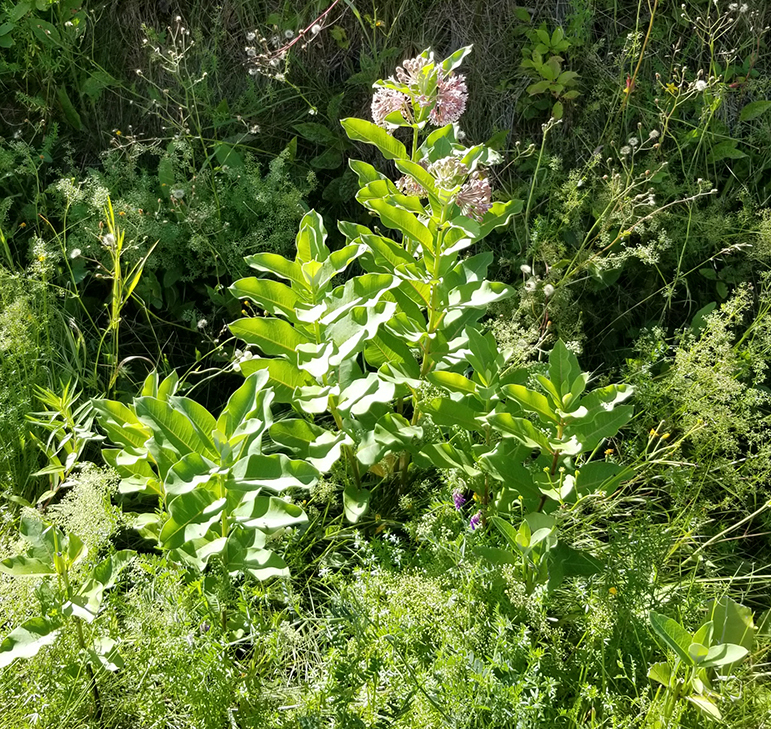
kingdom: Plantae
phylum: Tracheophyta
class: Magnoliopsida
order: Gentianales
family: Apocynaceae
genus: Asclepias
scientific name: Asclepias syriaca
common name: Common milkweed
